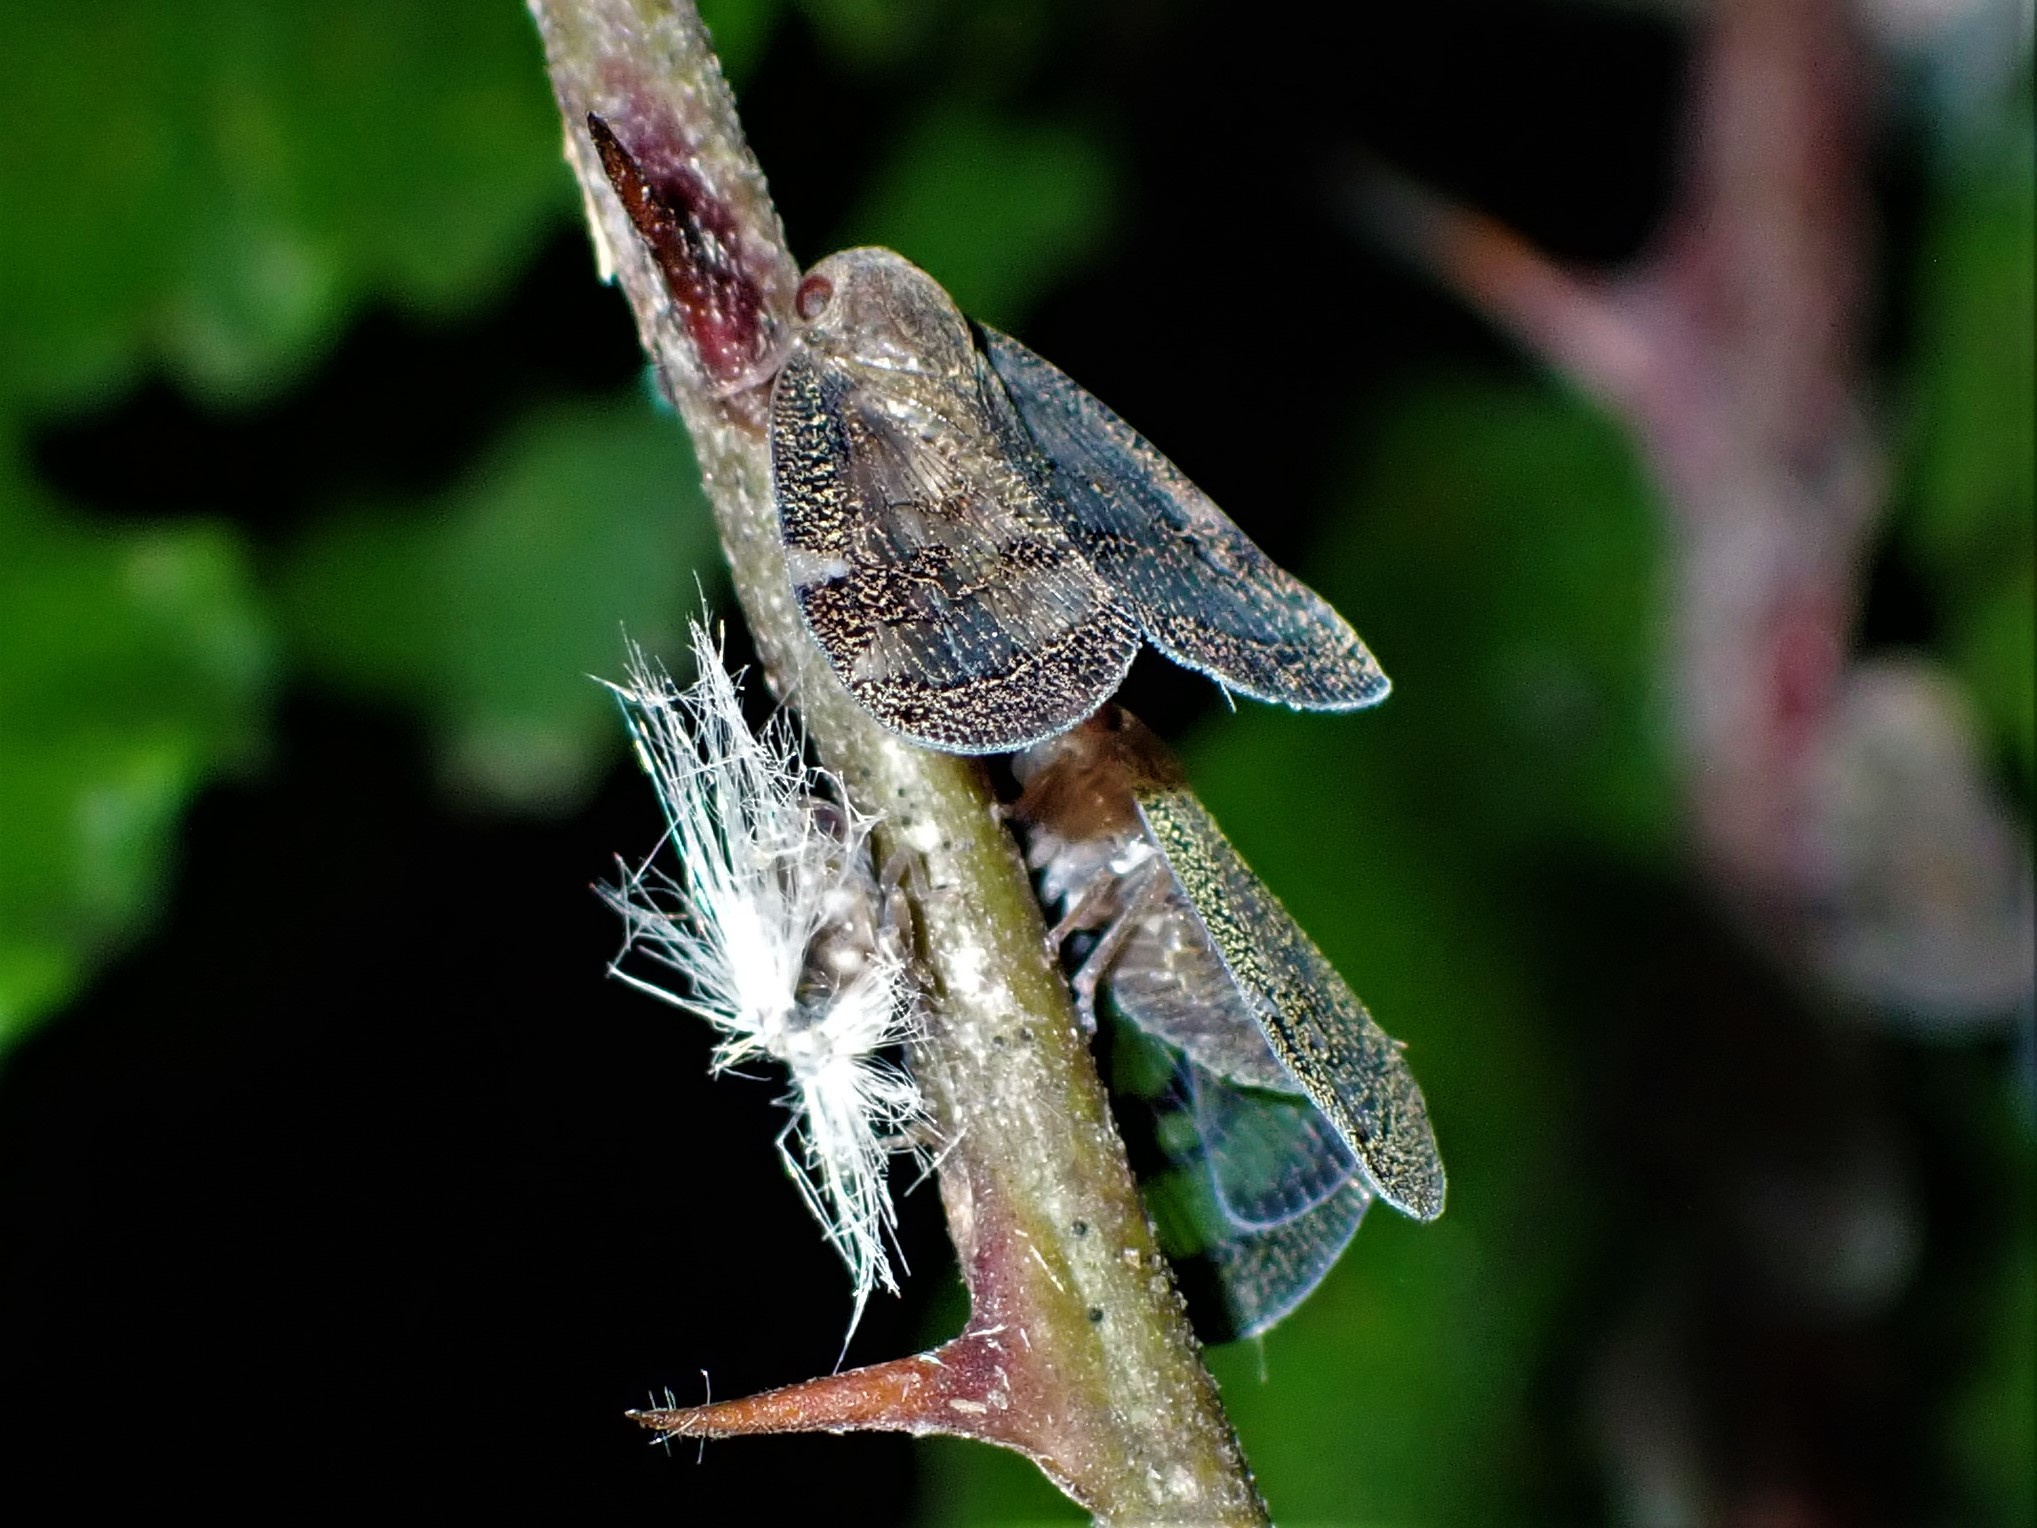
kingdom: Animalia
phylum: Arthropoda
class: Insecta
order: Hemiptera
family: Ricaniidae
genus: Scolypopa
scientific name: Scolypopa australis
